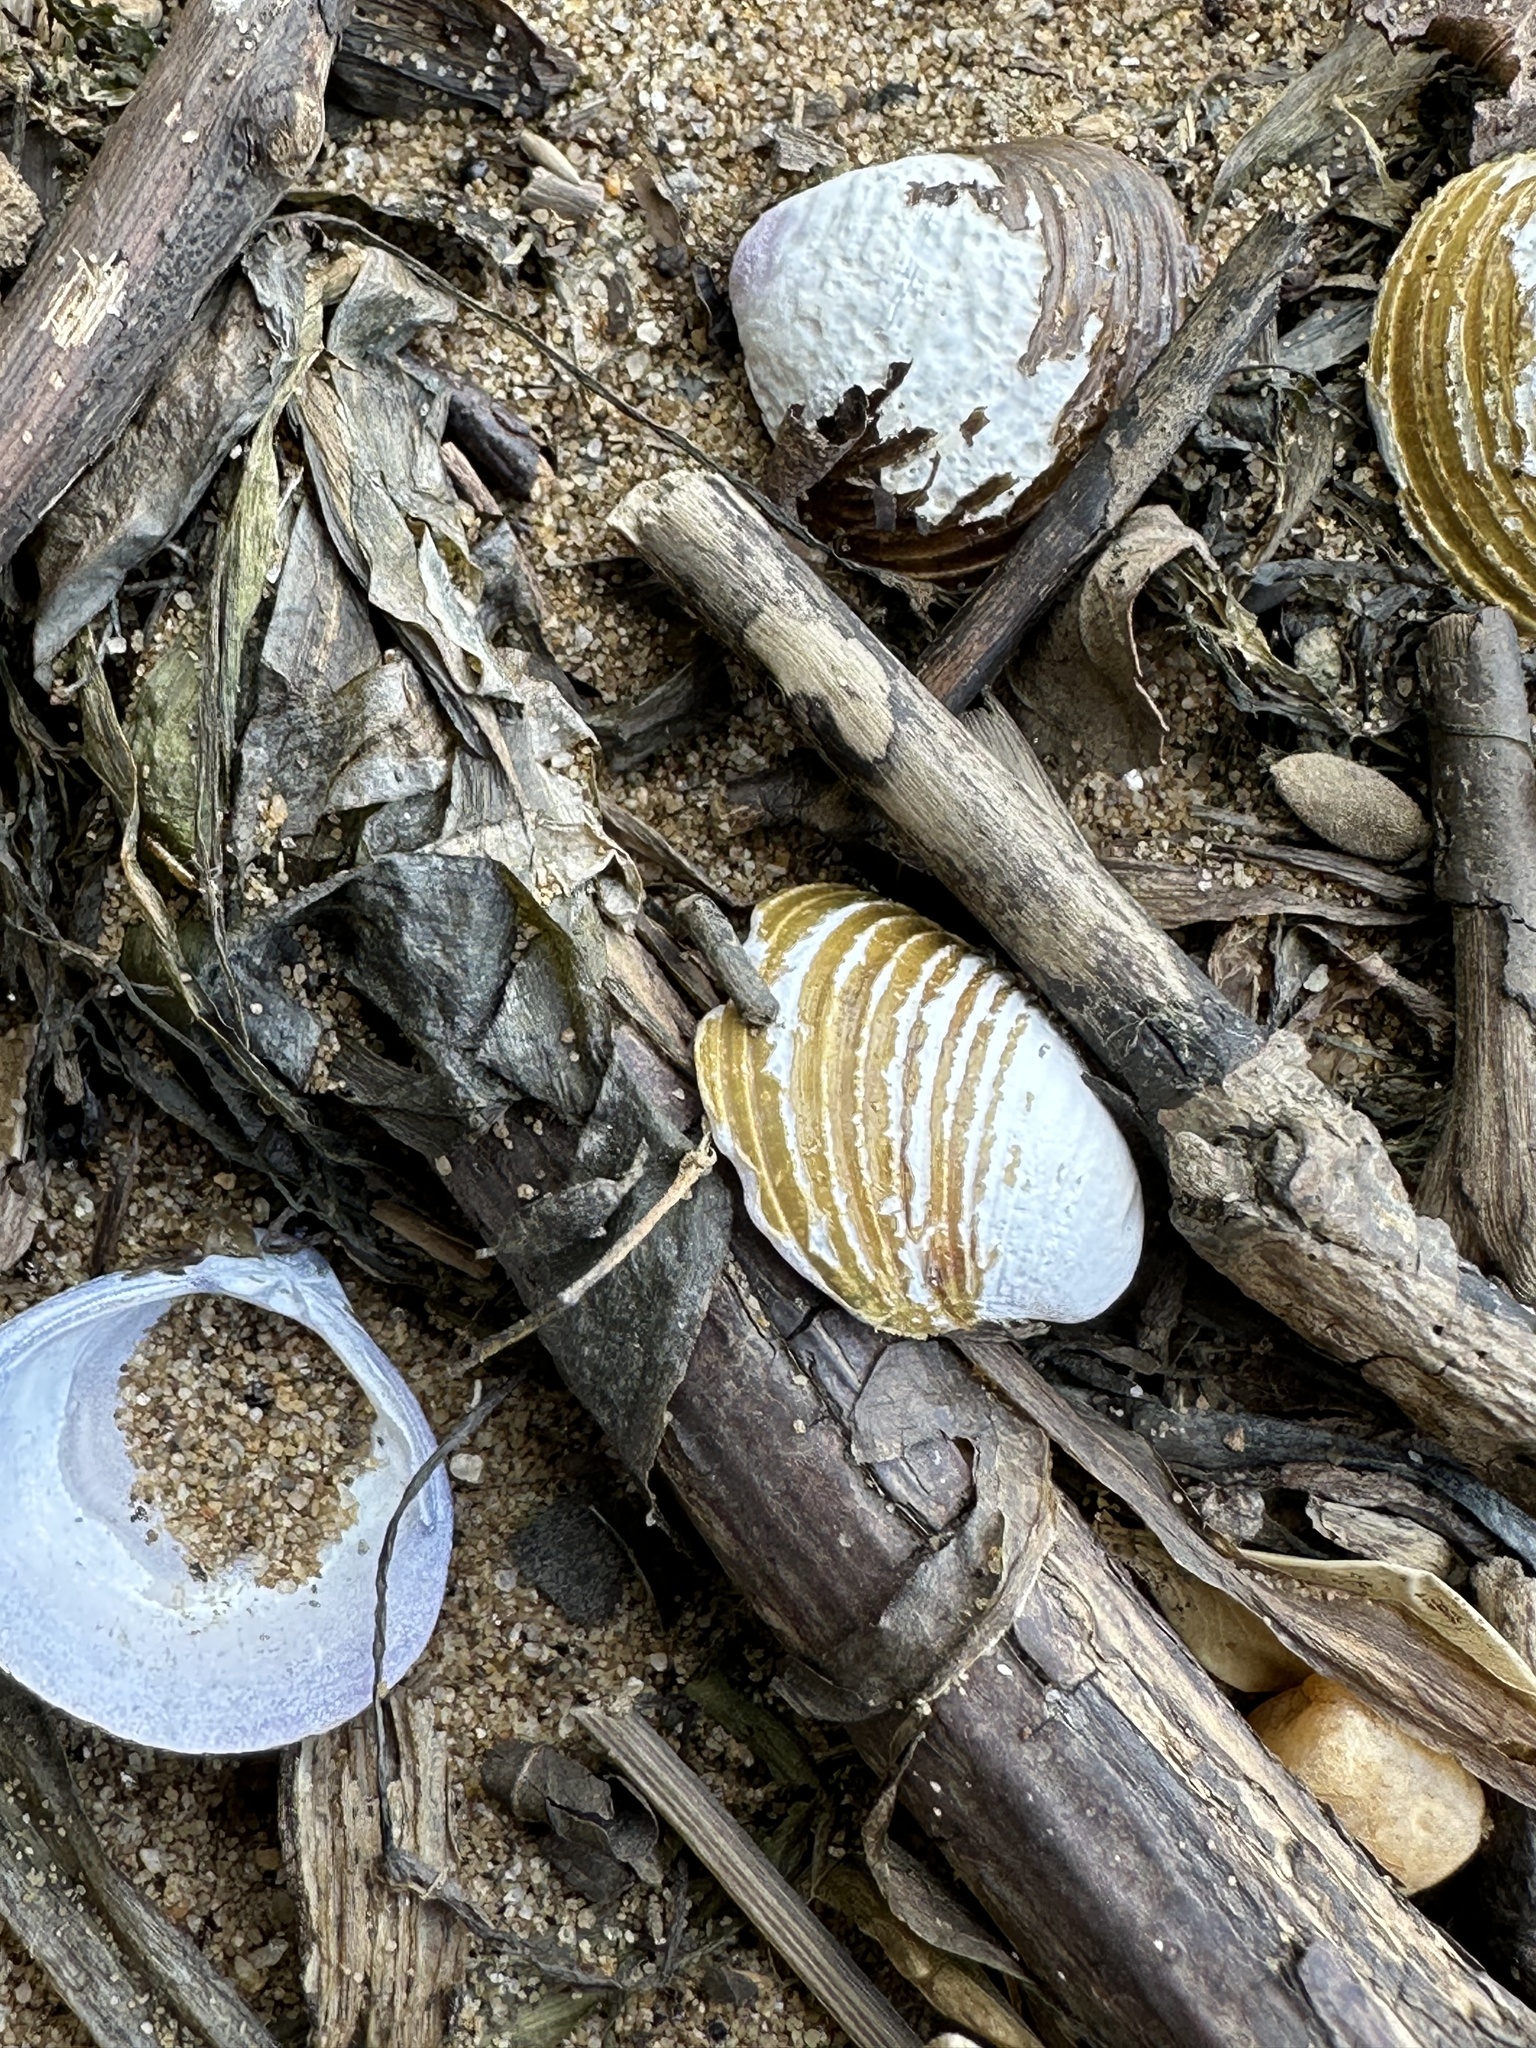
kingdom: Animalia
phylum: Mollusca
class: Bivalvia
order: Venerida
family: Cyrenidae
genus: Corbicula
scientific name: Corbicula fluminea
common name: Asian clam
